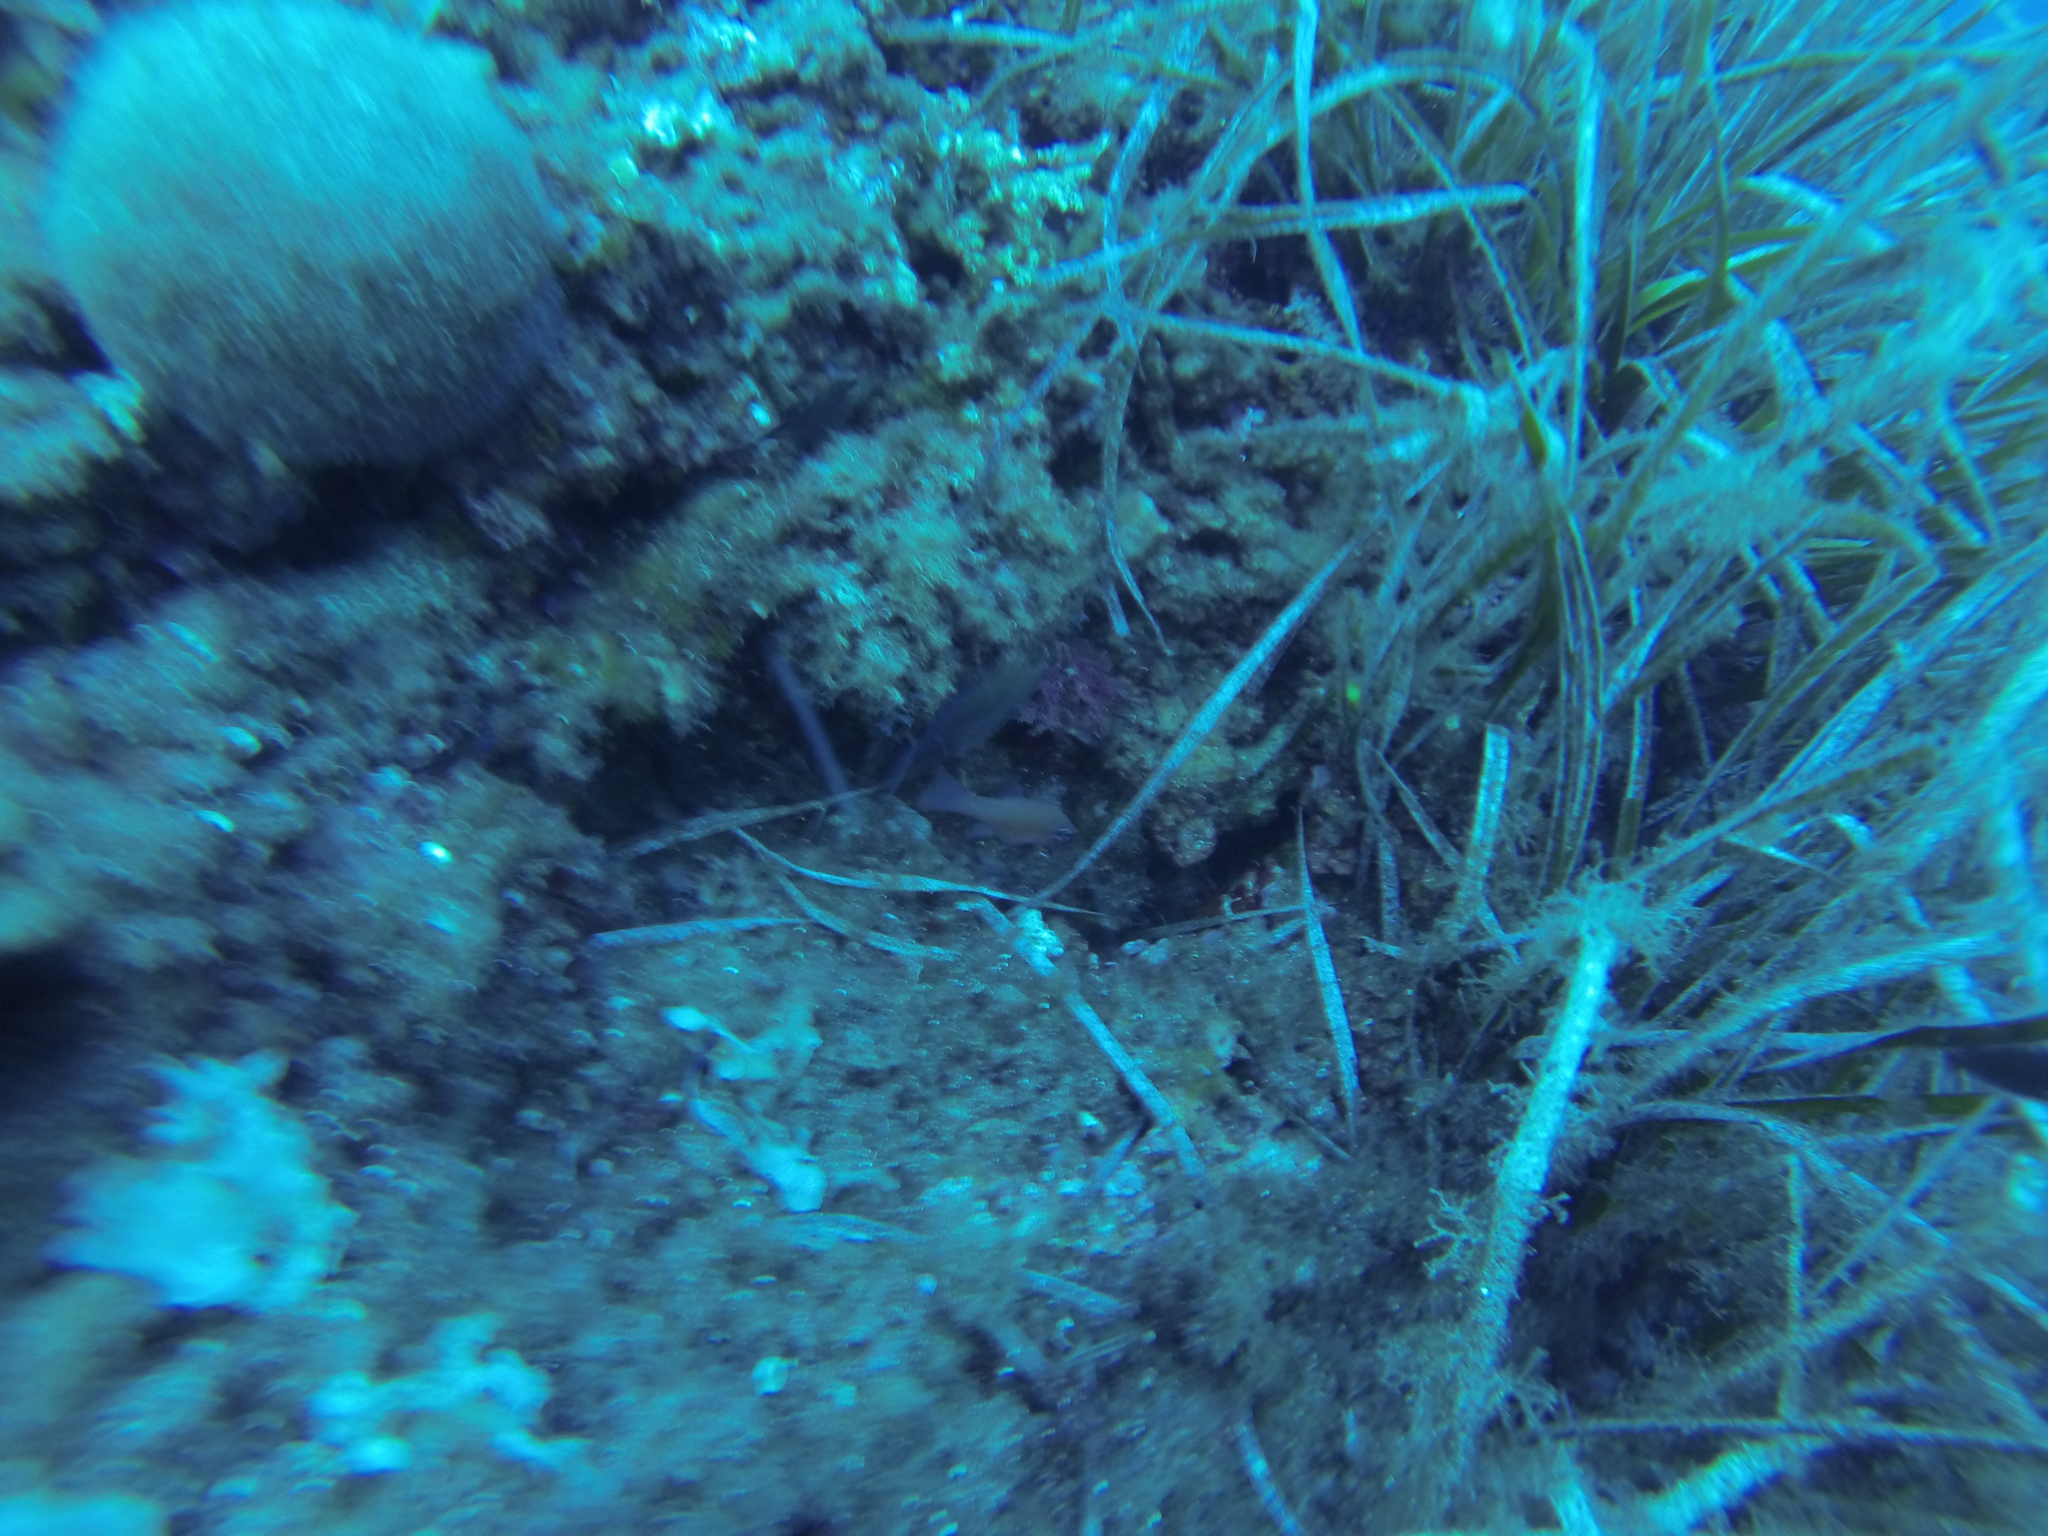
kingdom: Animalia
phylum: Chordata
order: Perciformes
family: Apogonidae
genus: Apogon
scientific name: Apogon imberbis
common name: Cardinal fish
